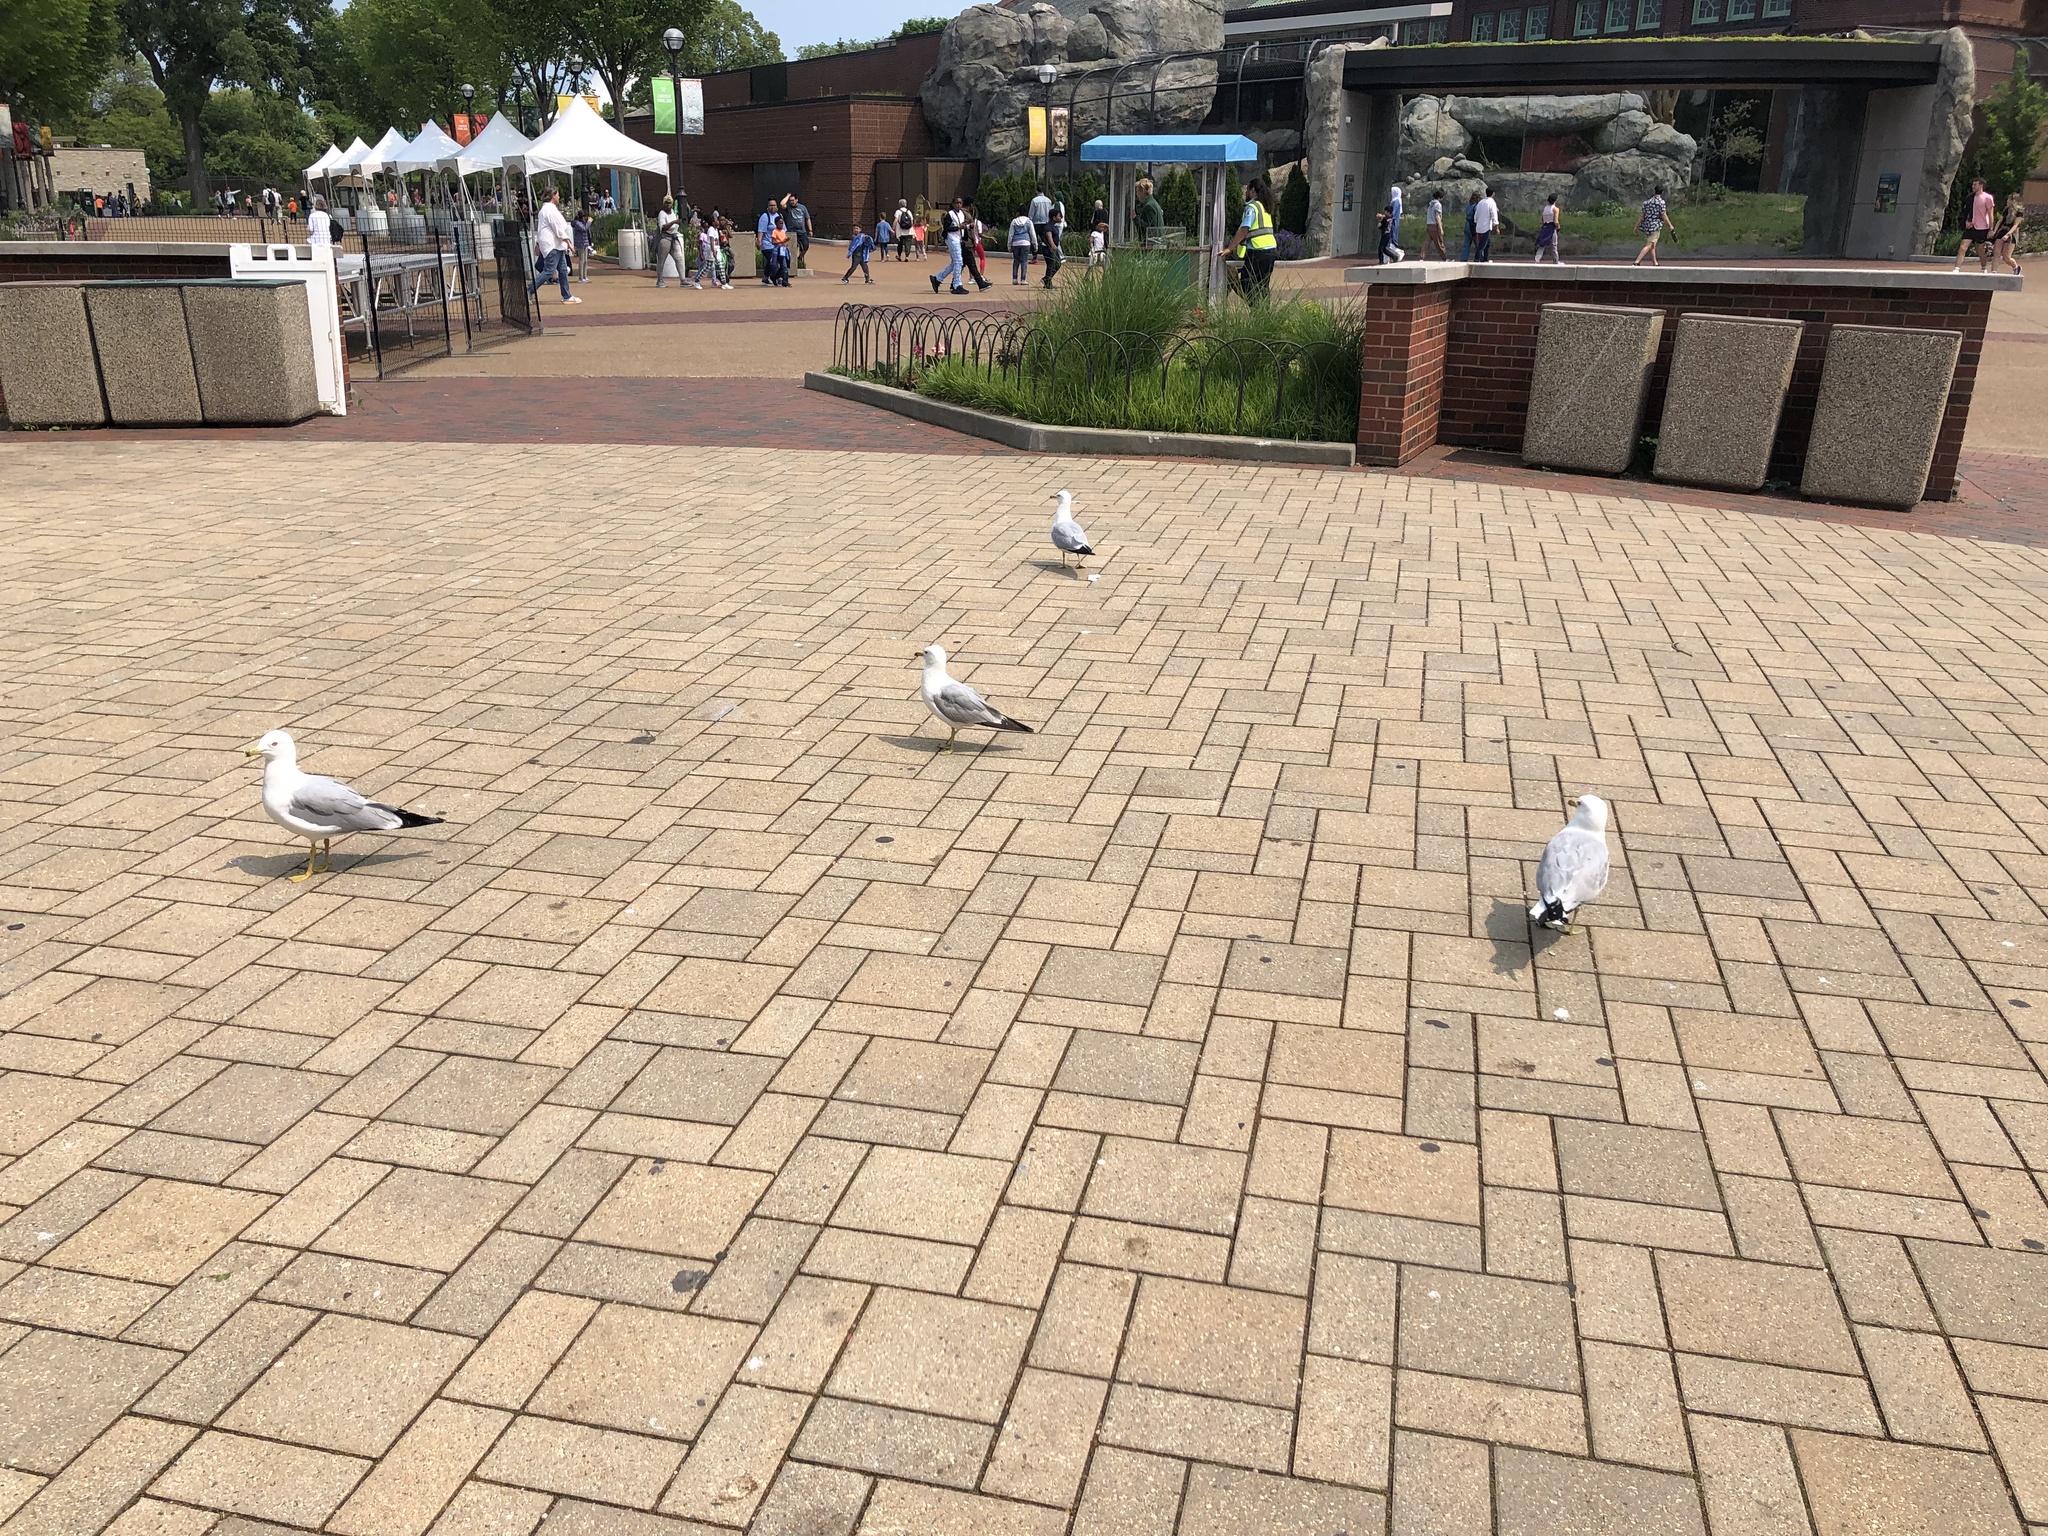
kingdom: Animalia
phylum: Chordata
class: Aves
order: Charadriiformes
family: Laridae
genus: Larus
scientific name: Larus delawarensis
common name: Ring-billed gull
